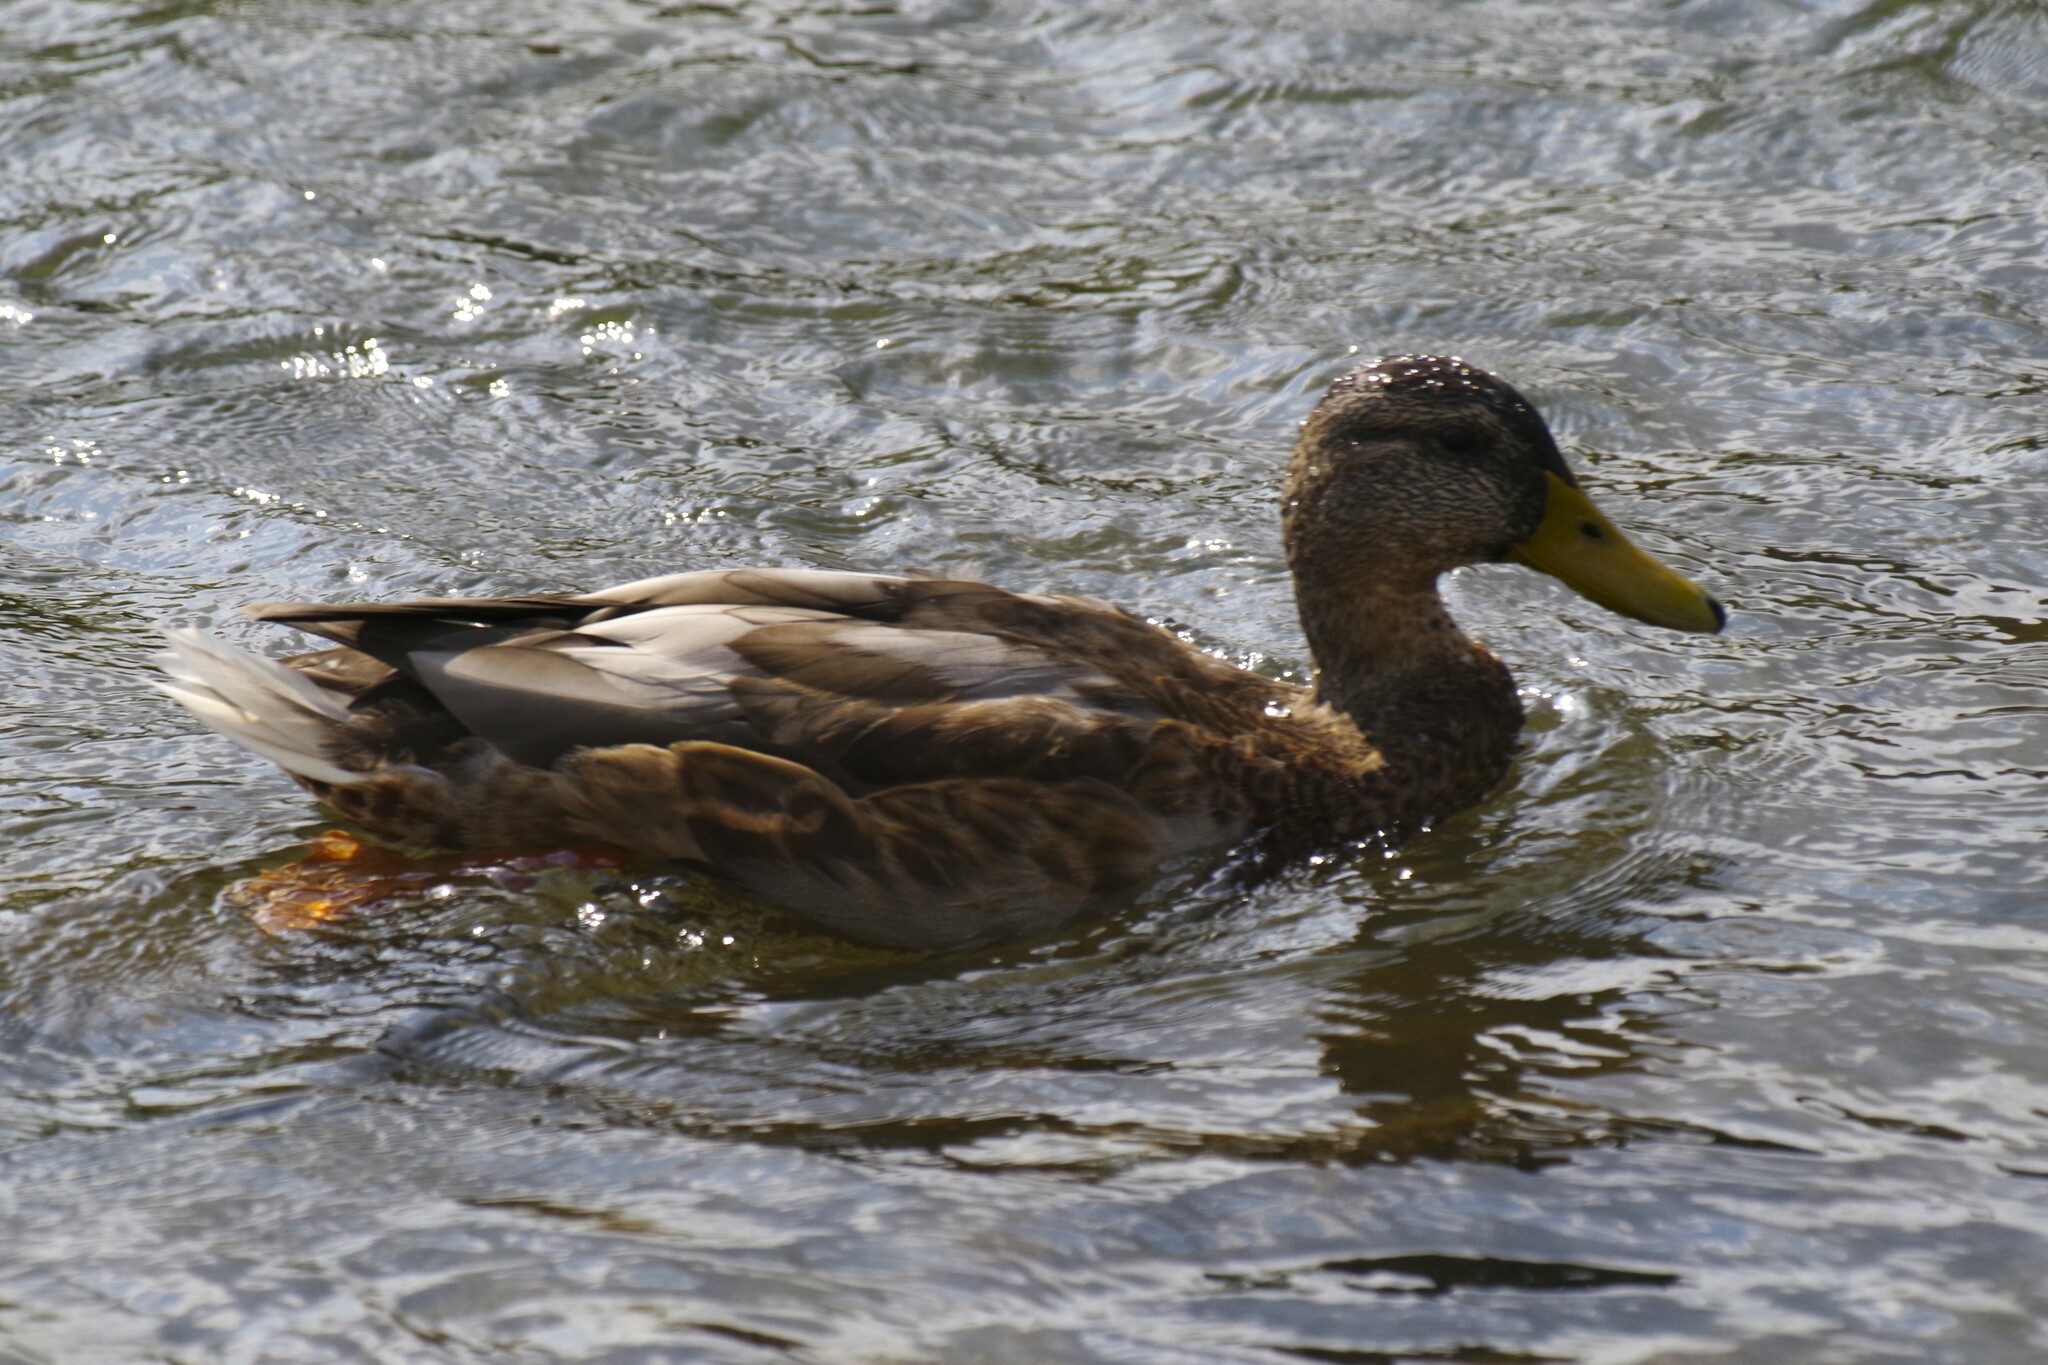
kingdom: Animalia
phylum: Chordata
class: Aves
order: Anseriformes
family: Anatidae
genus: Anas
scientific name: Anas platyrhynchos
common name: Mallard
